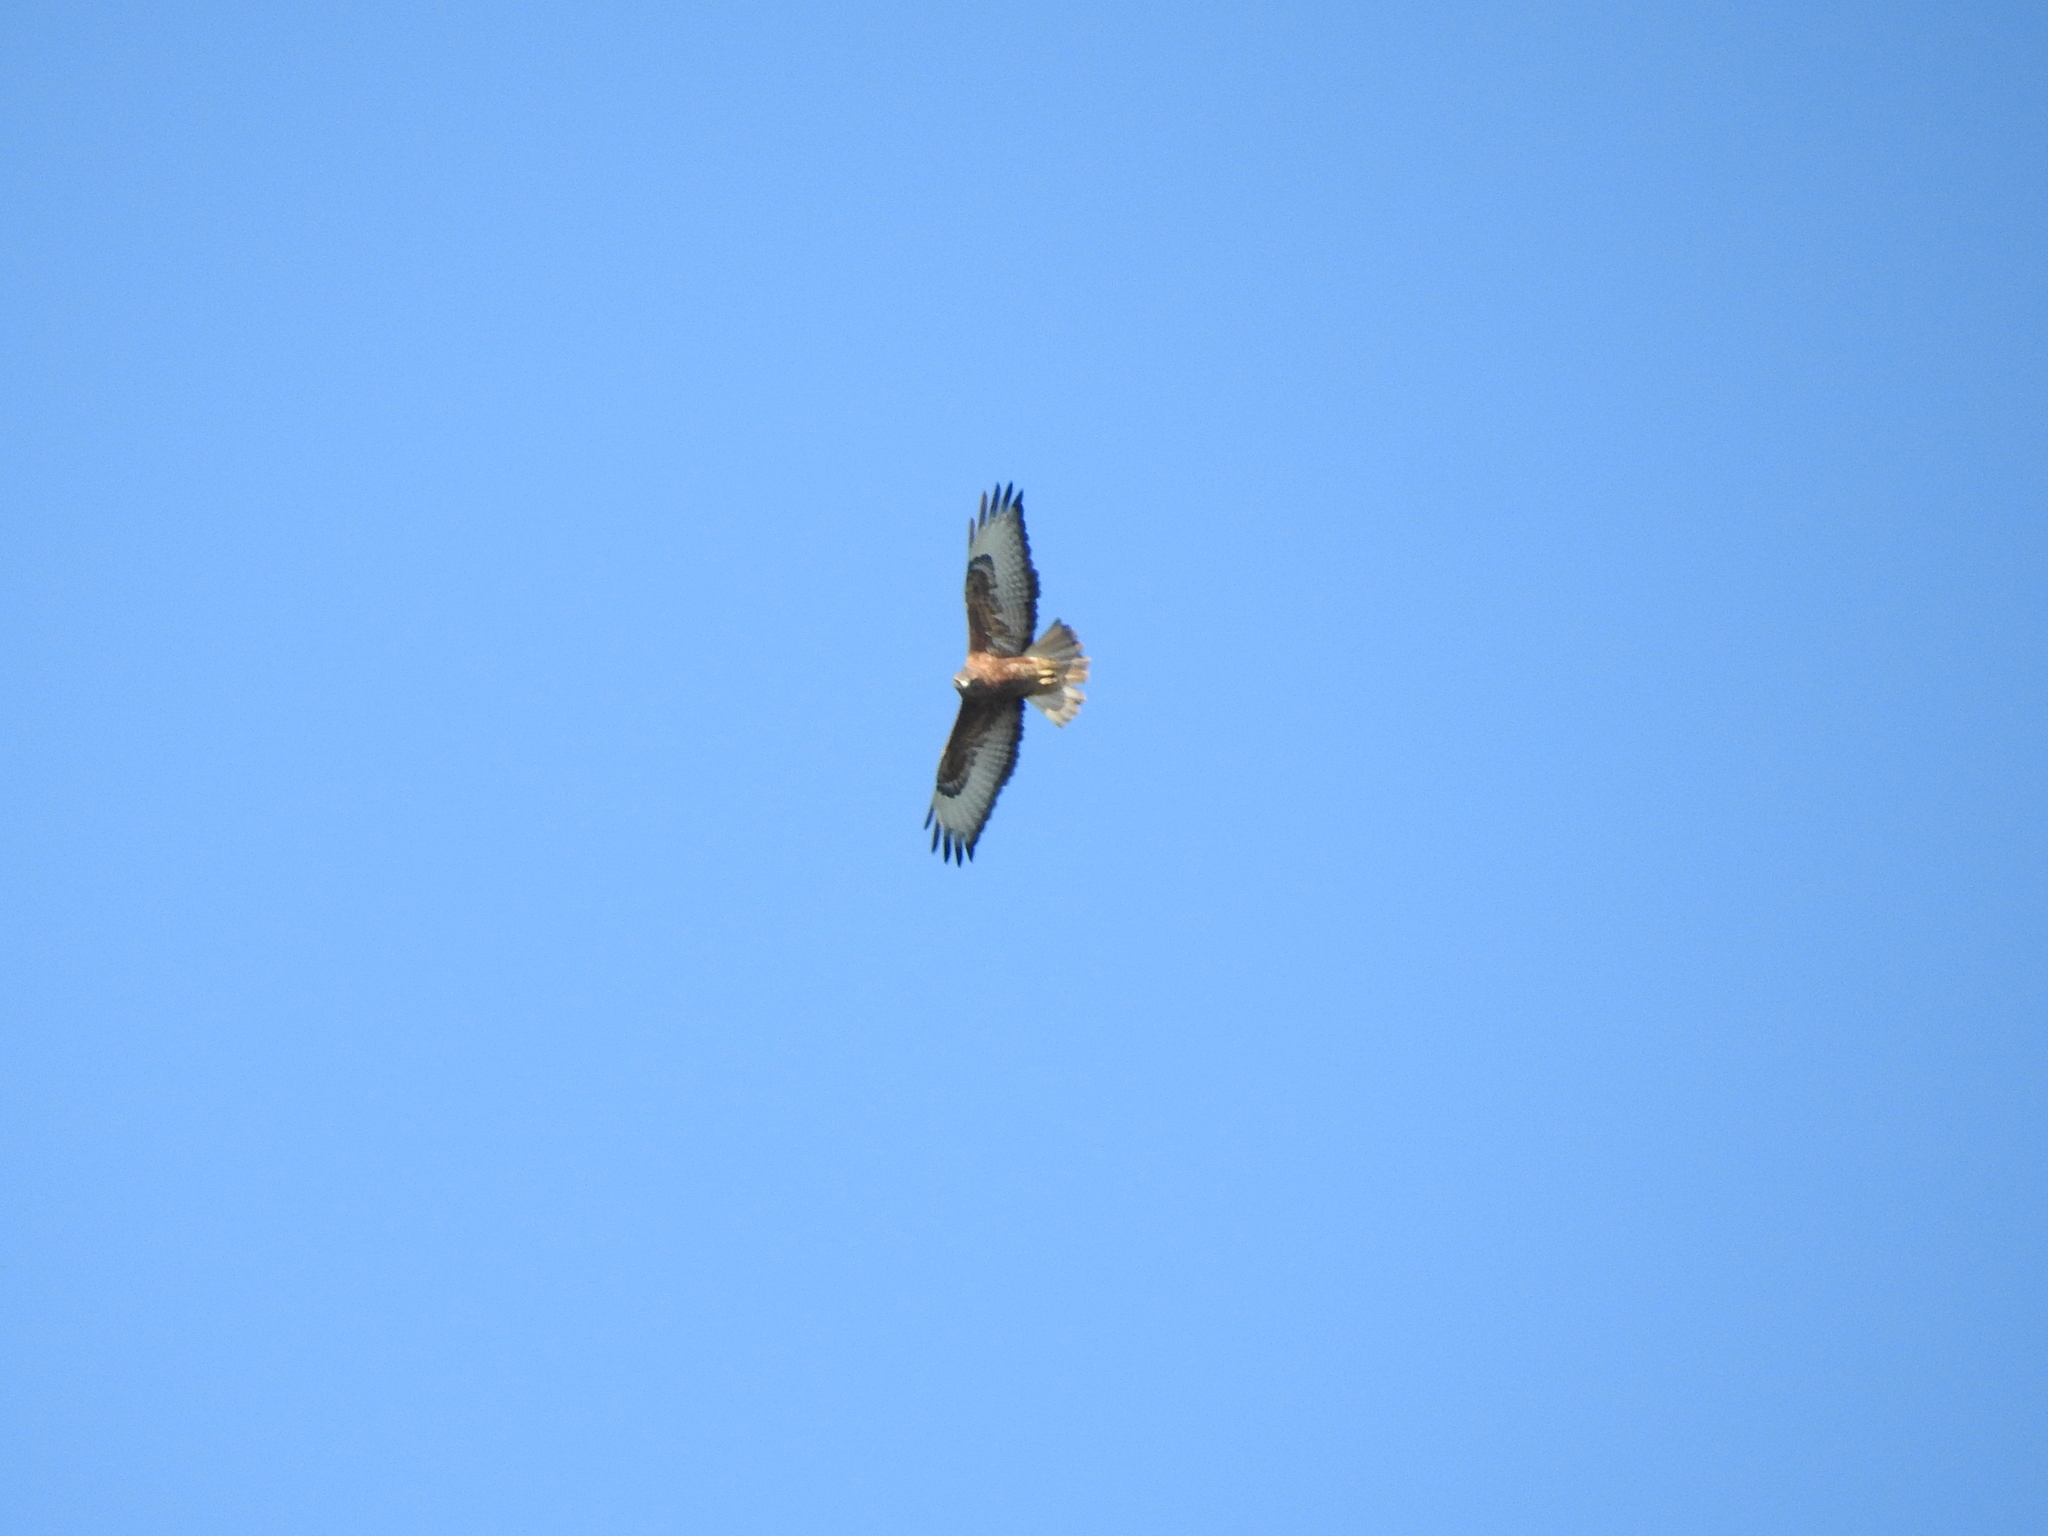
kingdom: Animalia
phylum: Chordata
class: Aves
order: Accipitriformes
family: Accipitridae
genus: Buteo
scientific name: Buteo buteo
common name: Common buzzard
